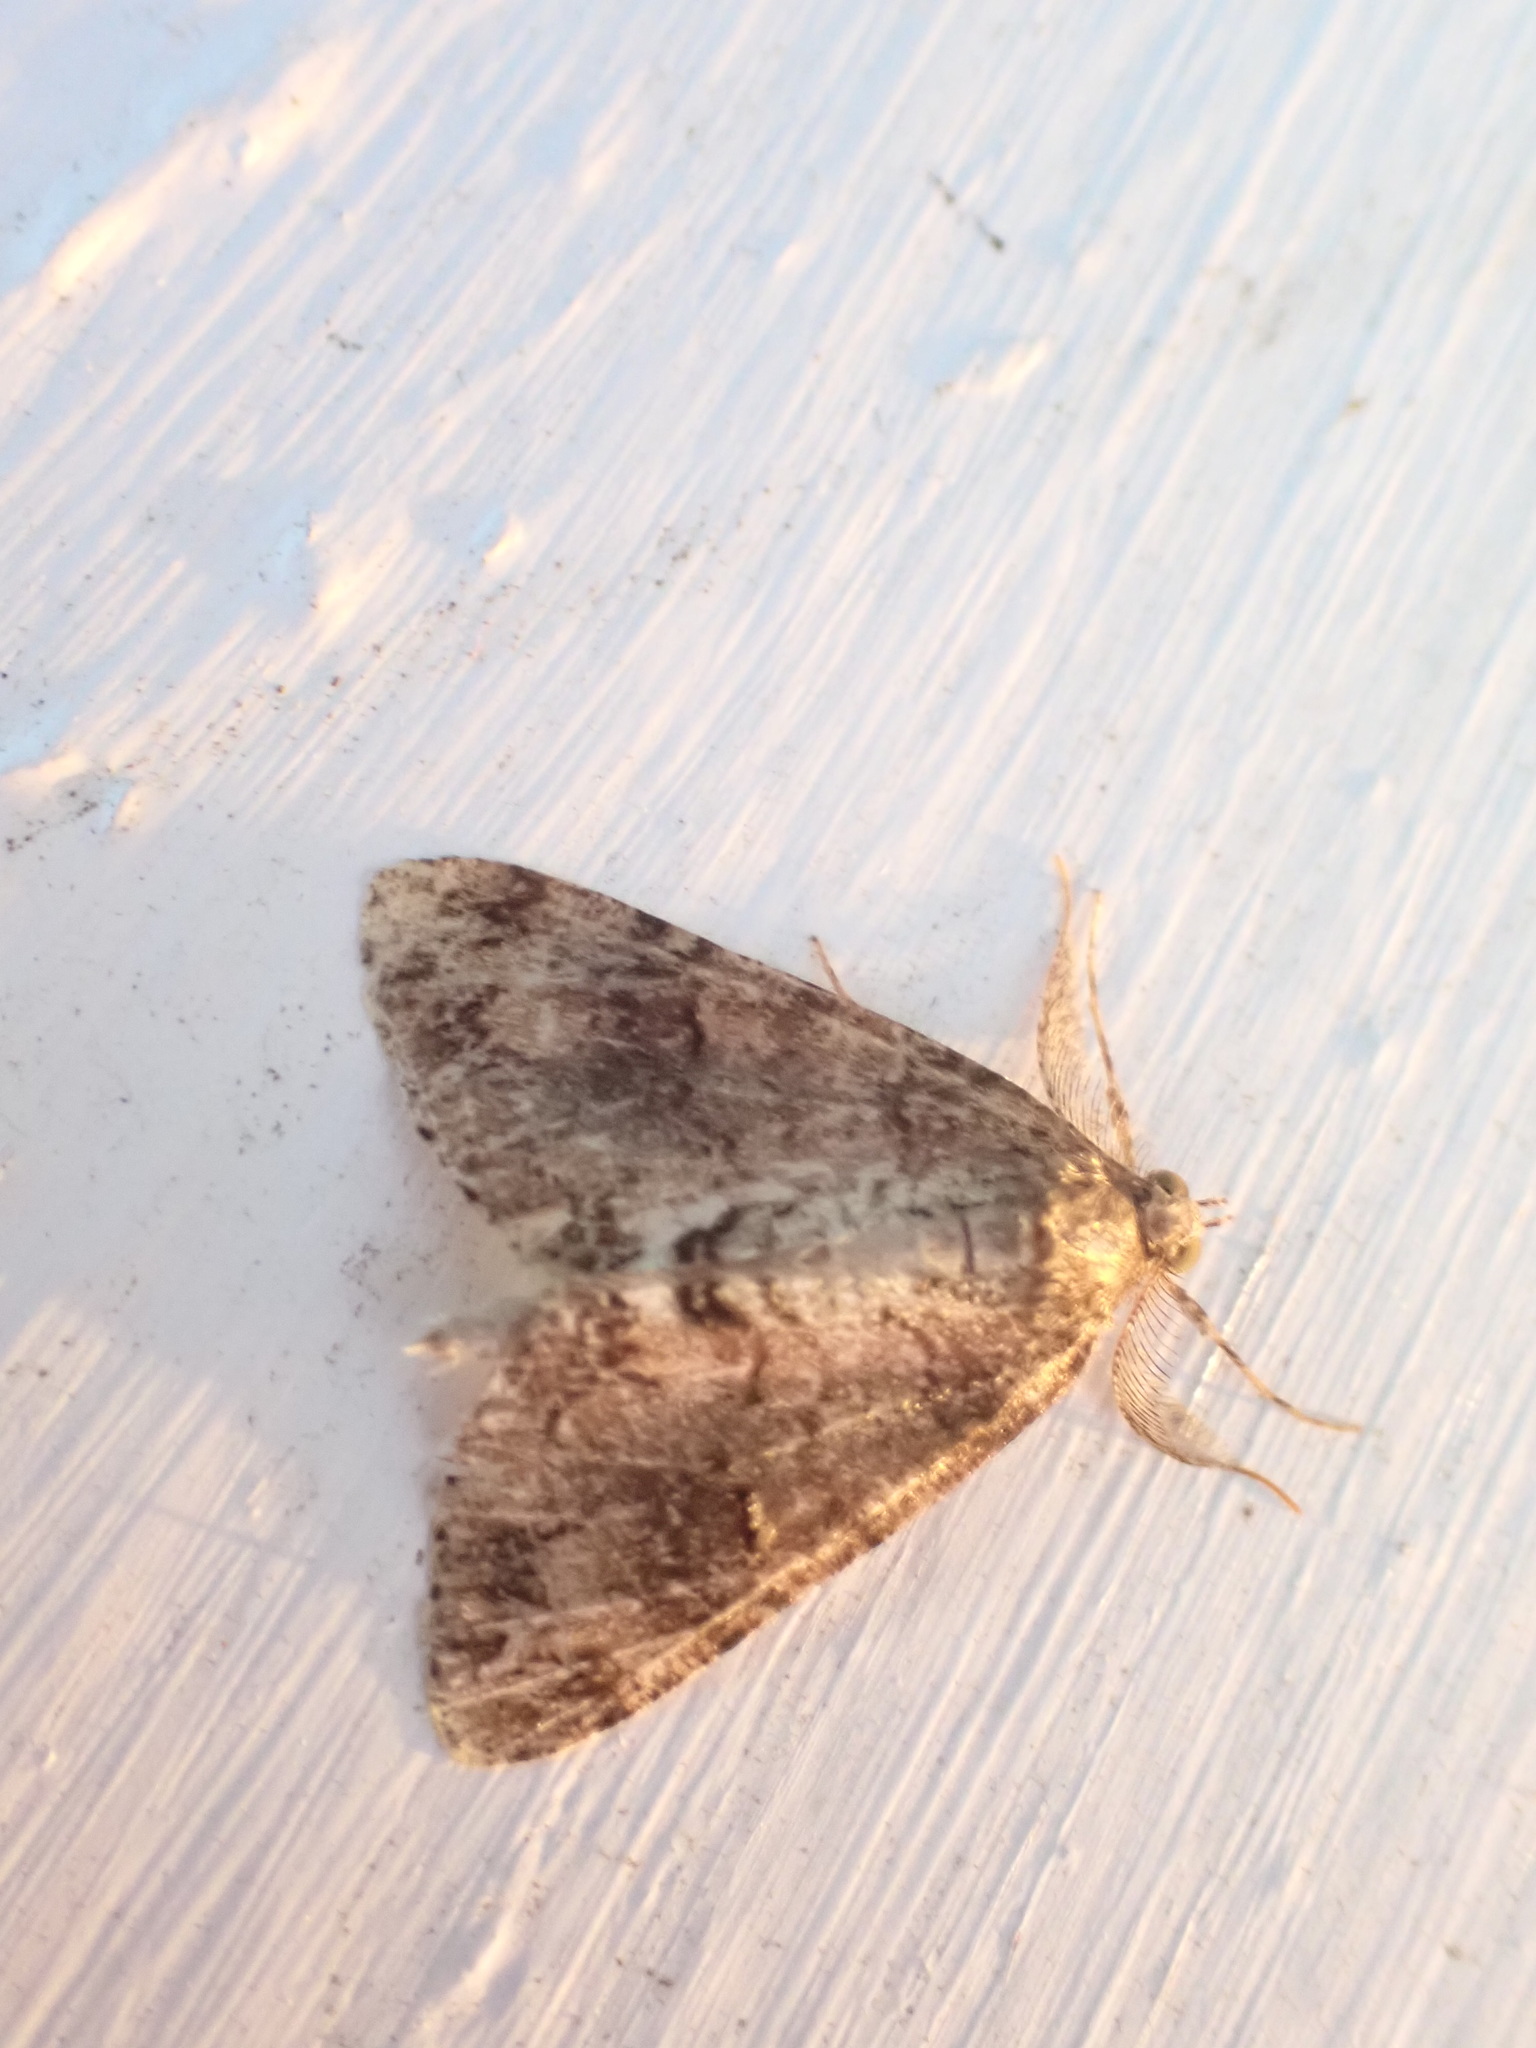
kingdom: Animalia
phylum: Arthropoda
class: Insecta
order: Lepidoptera
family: Geometridae
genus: Pseudocoremia
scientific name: Pseudocoremia suavis
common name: Common forest looper
